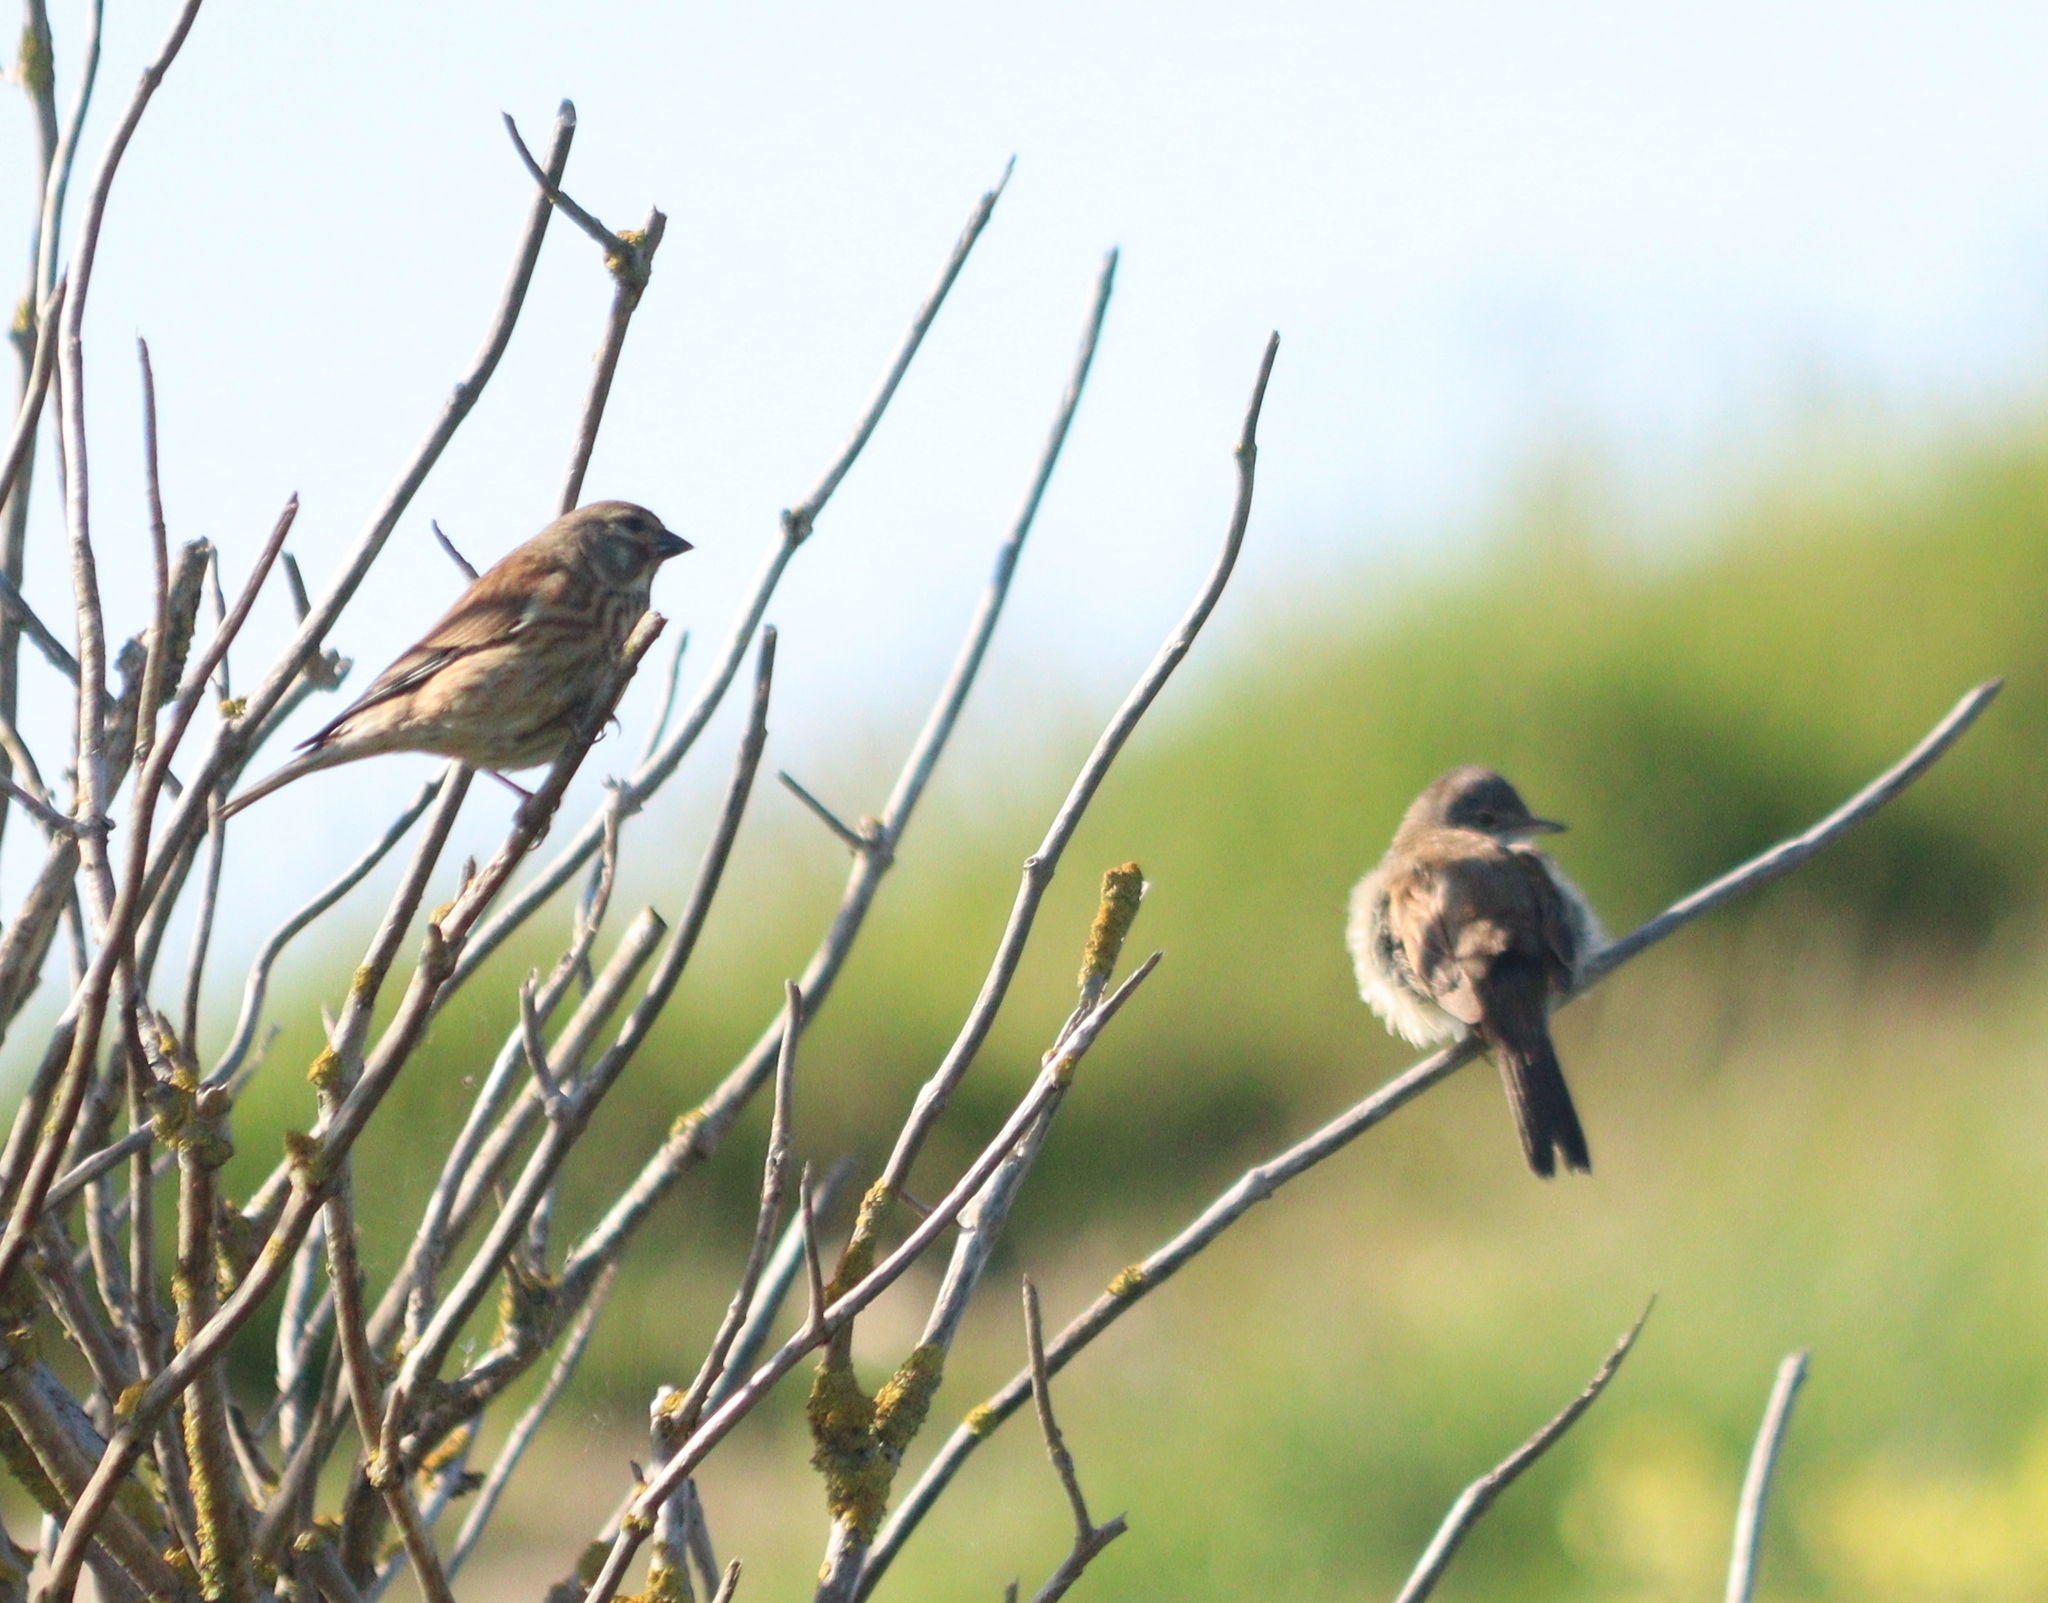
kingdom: Animalia
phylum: Chordata
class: Aves
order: Passeriformes
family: Fringillidae
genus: Linaria
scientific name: Linaria cannabina
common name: Common linnet
